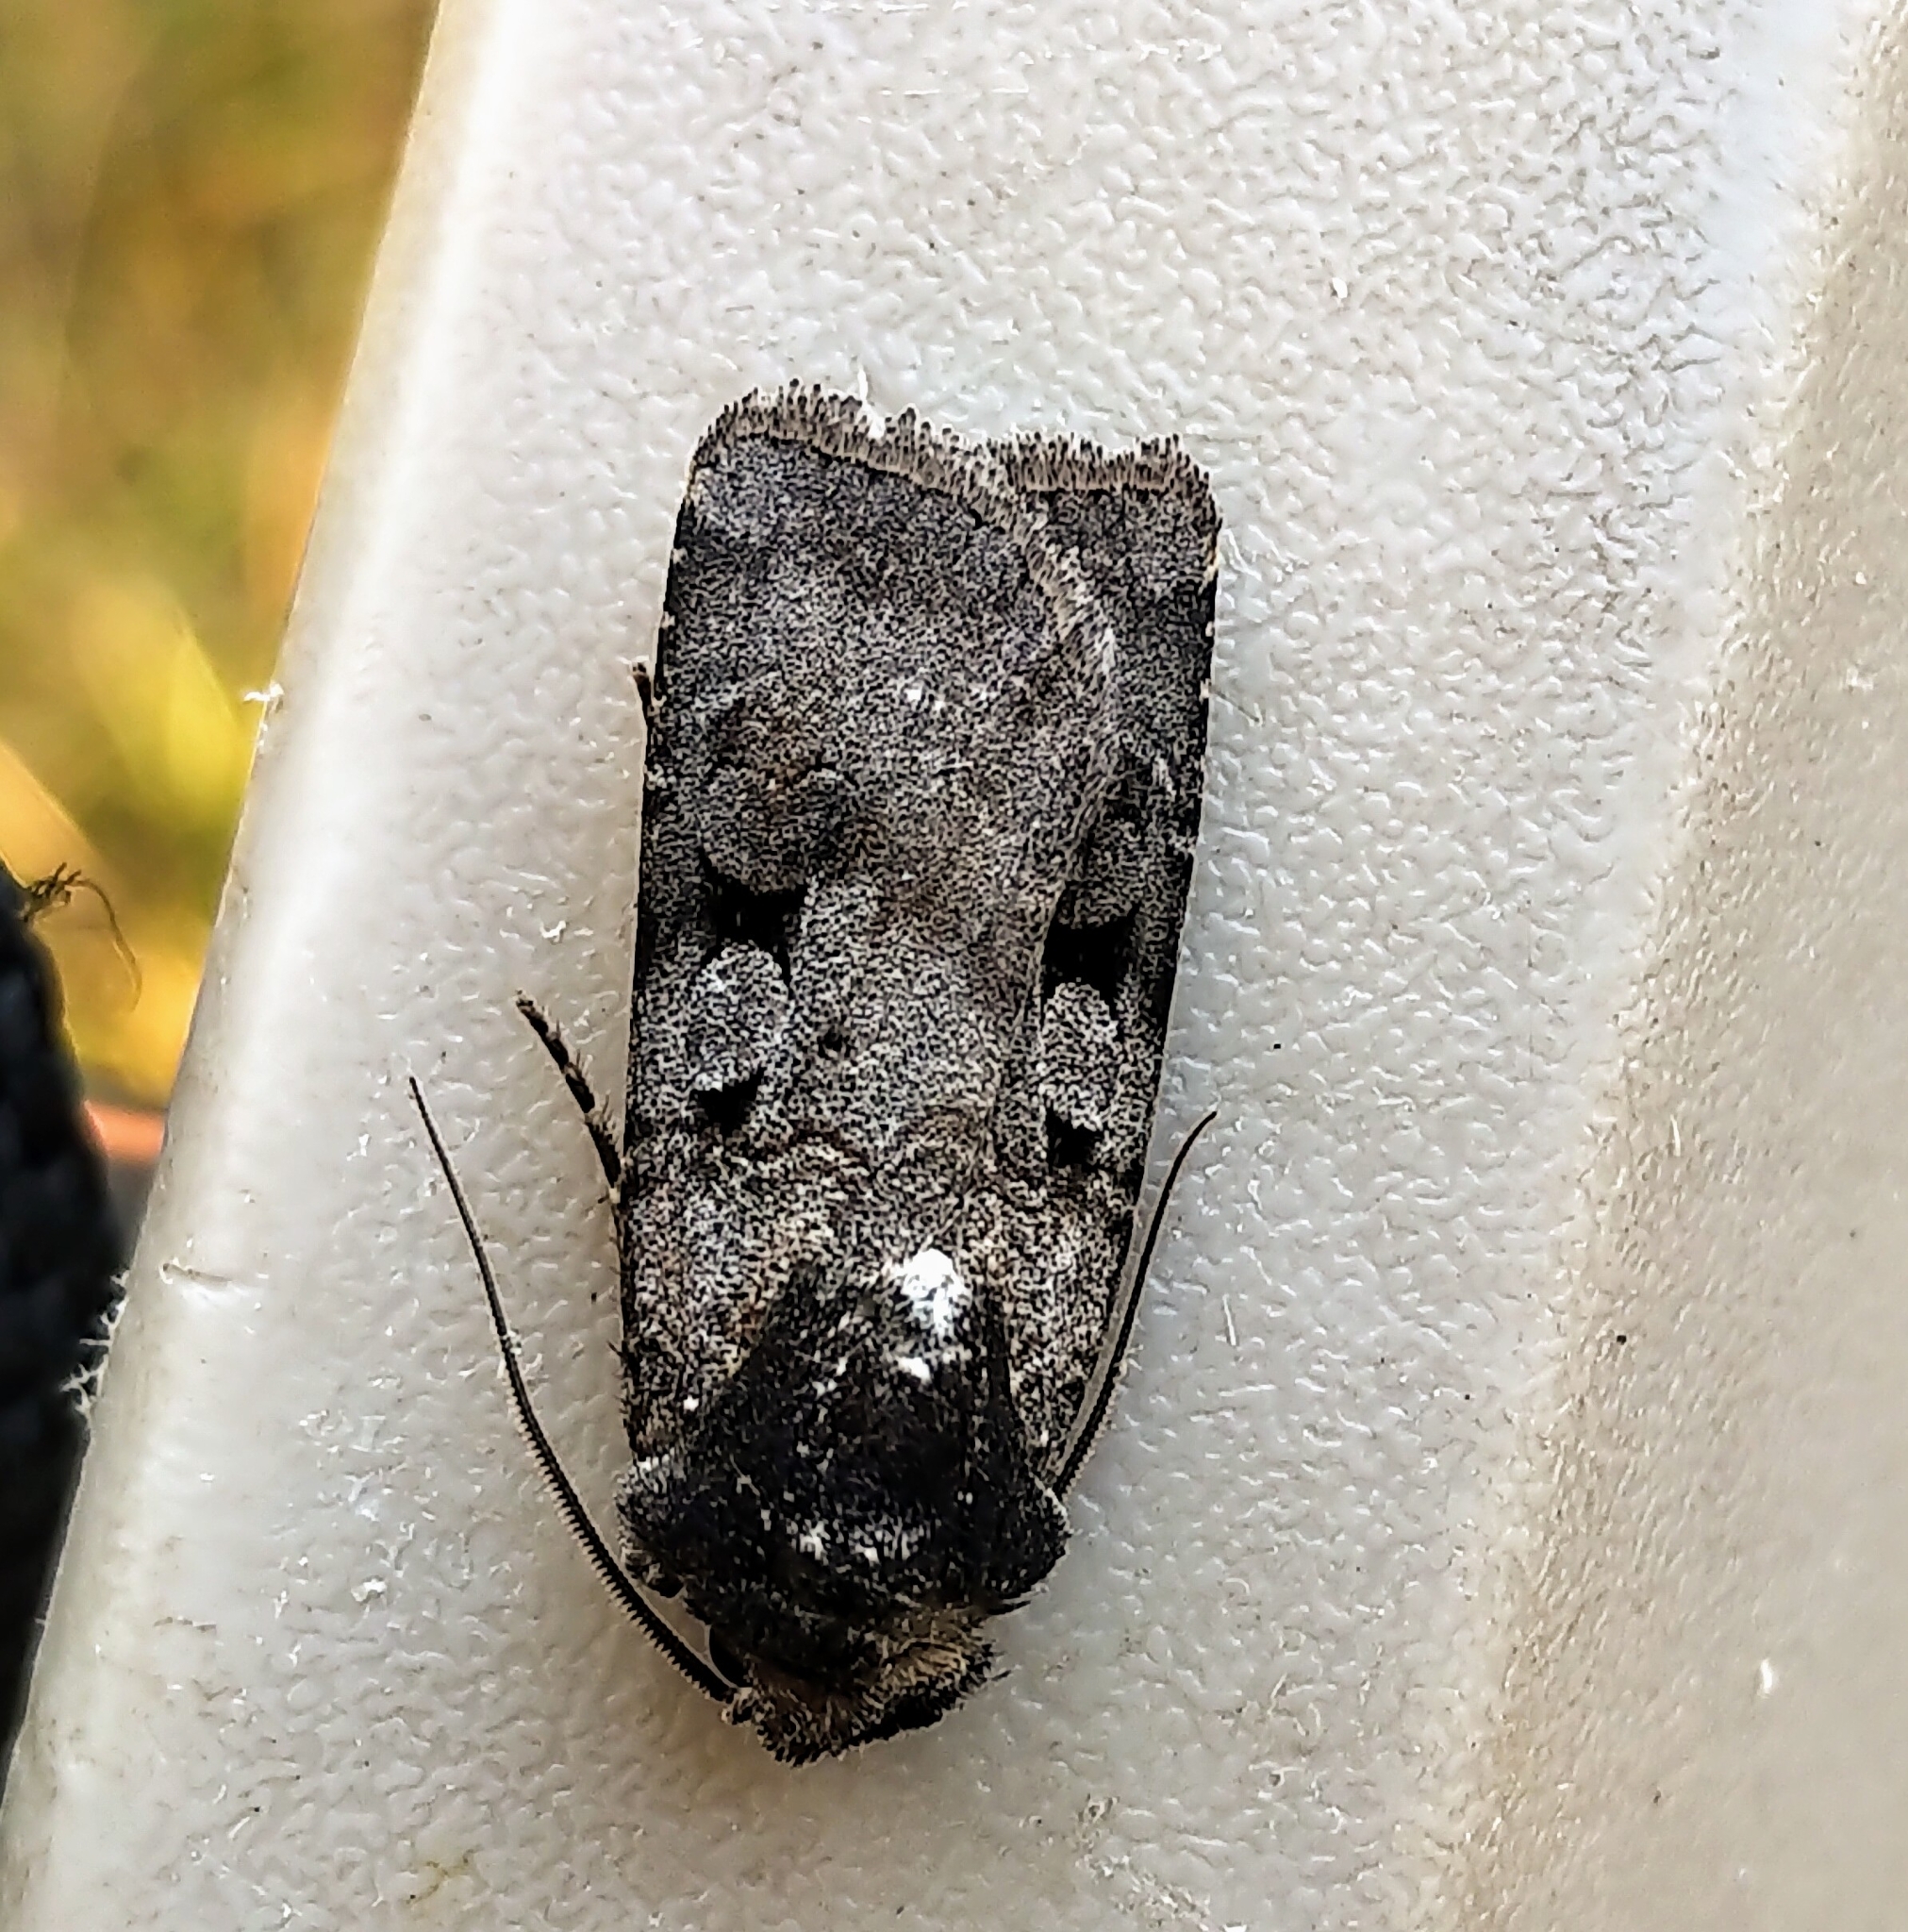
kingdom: Animalia
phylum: Arthropoda
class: Insecta
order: Lepidoptera
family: Noctuidae
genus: Euxoa
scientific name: Euxoa albipennis
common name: White-striped dart
